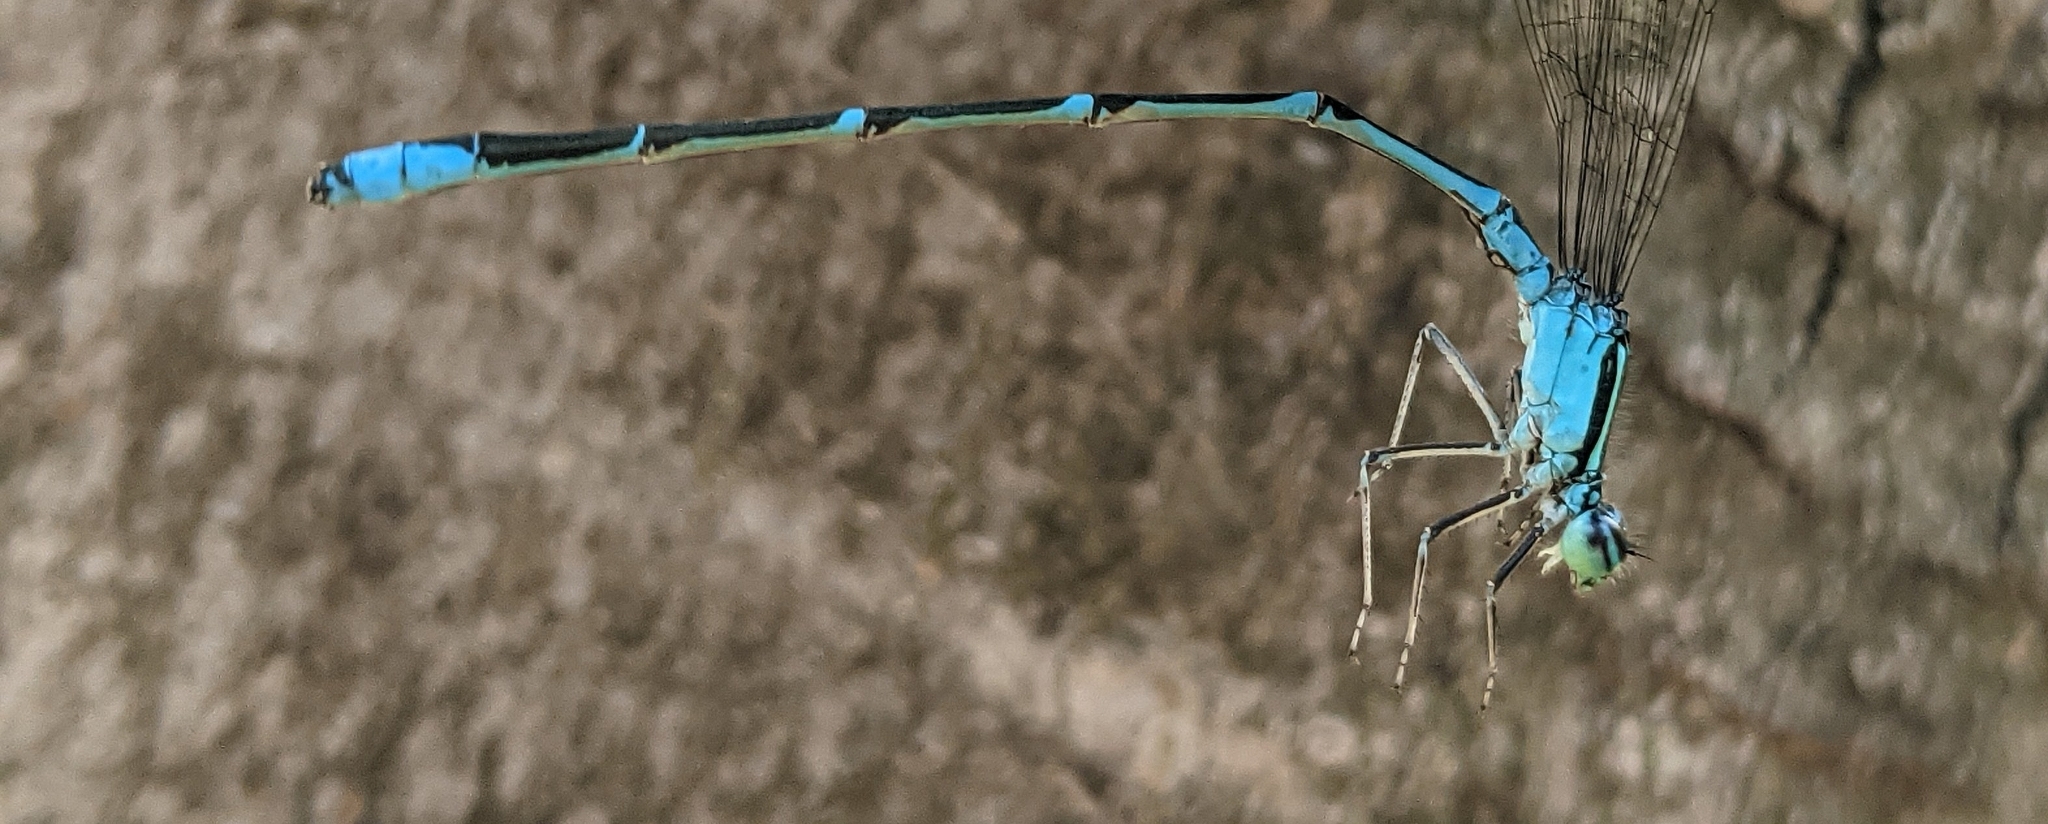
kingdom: Animalia
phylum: Arthropoda
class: Insecta
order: Odonata
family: Coenagrionidae
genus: Enallagma
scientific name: Enallagma exsulans
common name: Stream bluet
